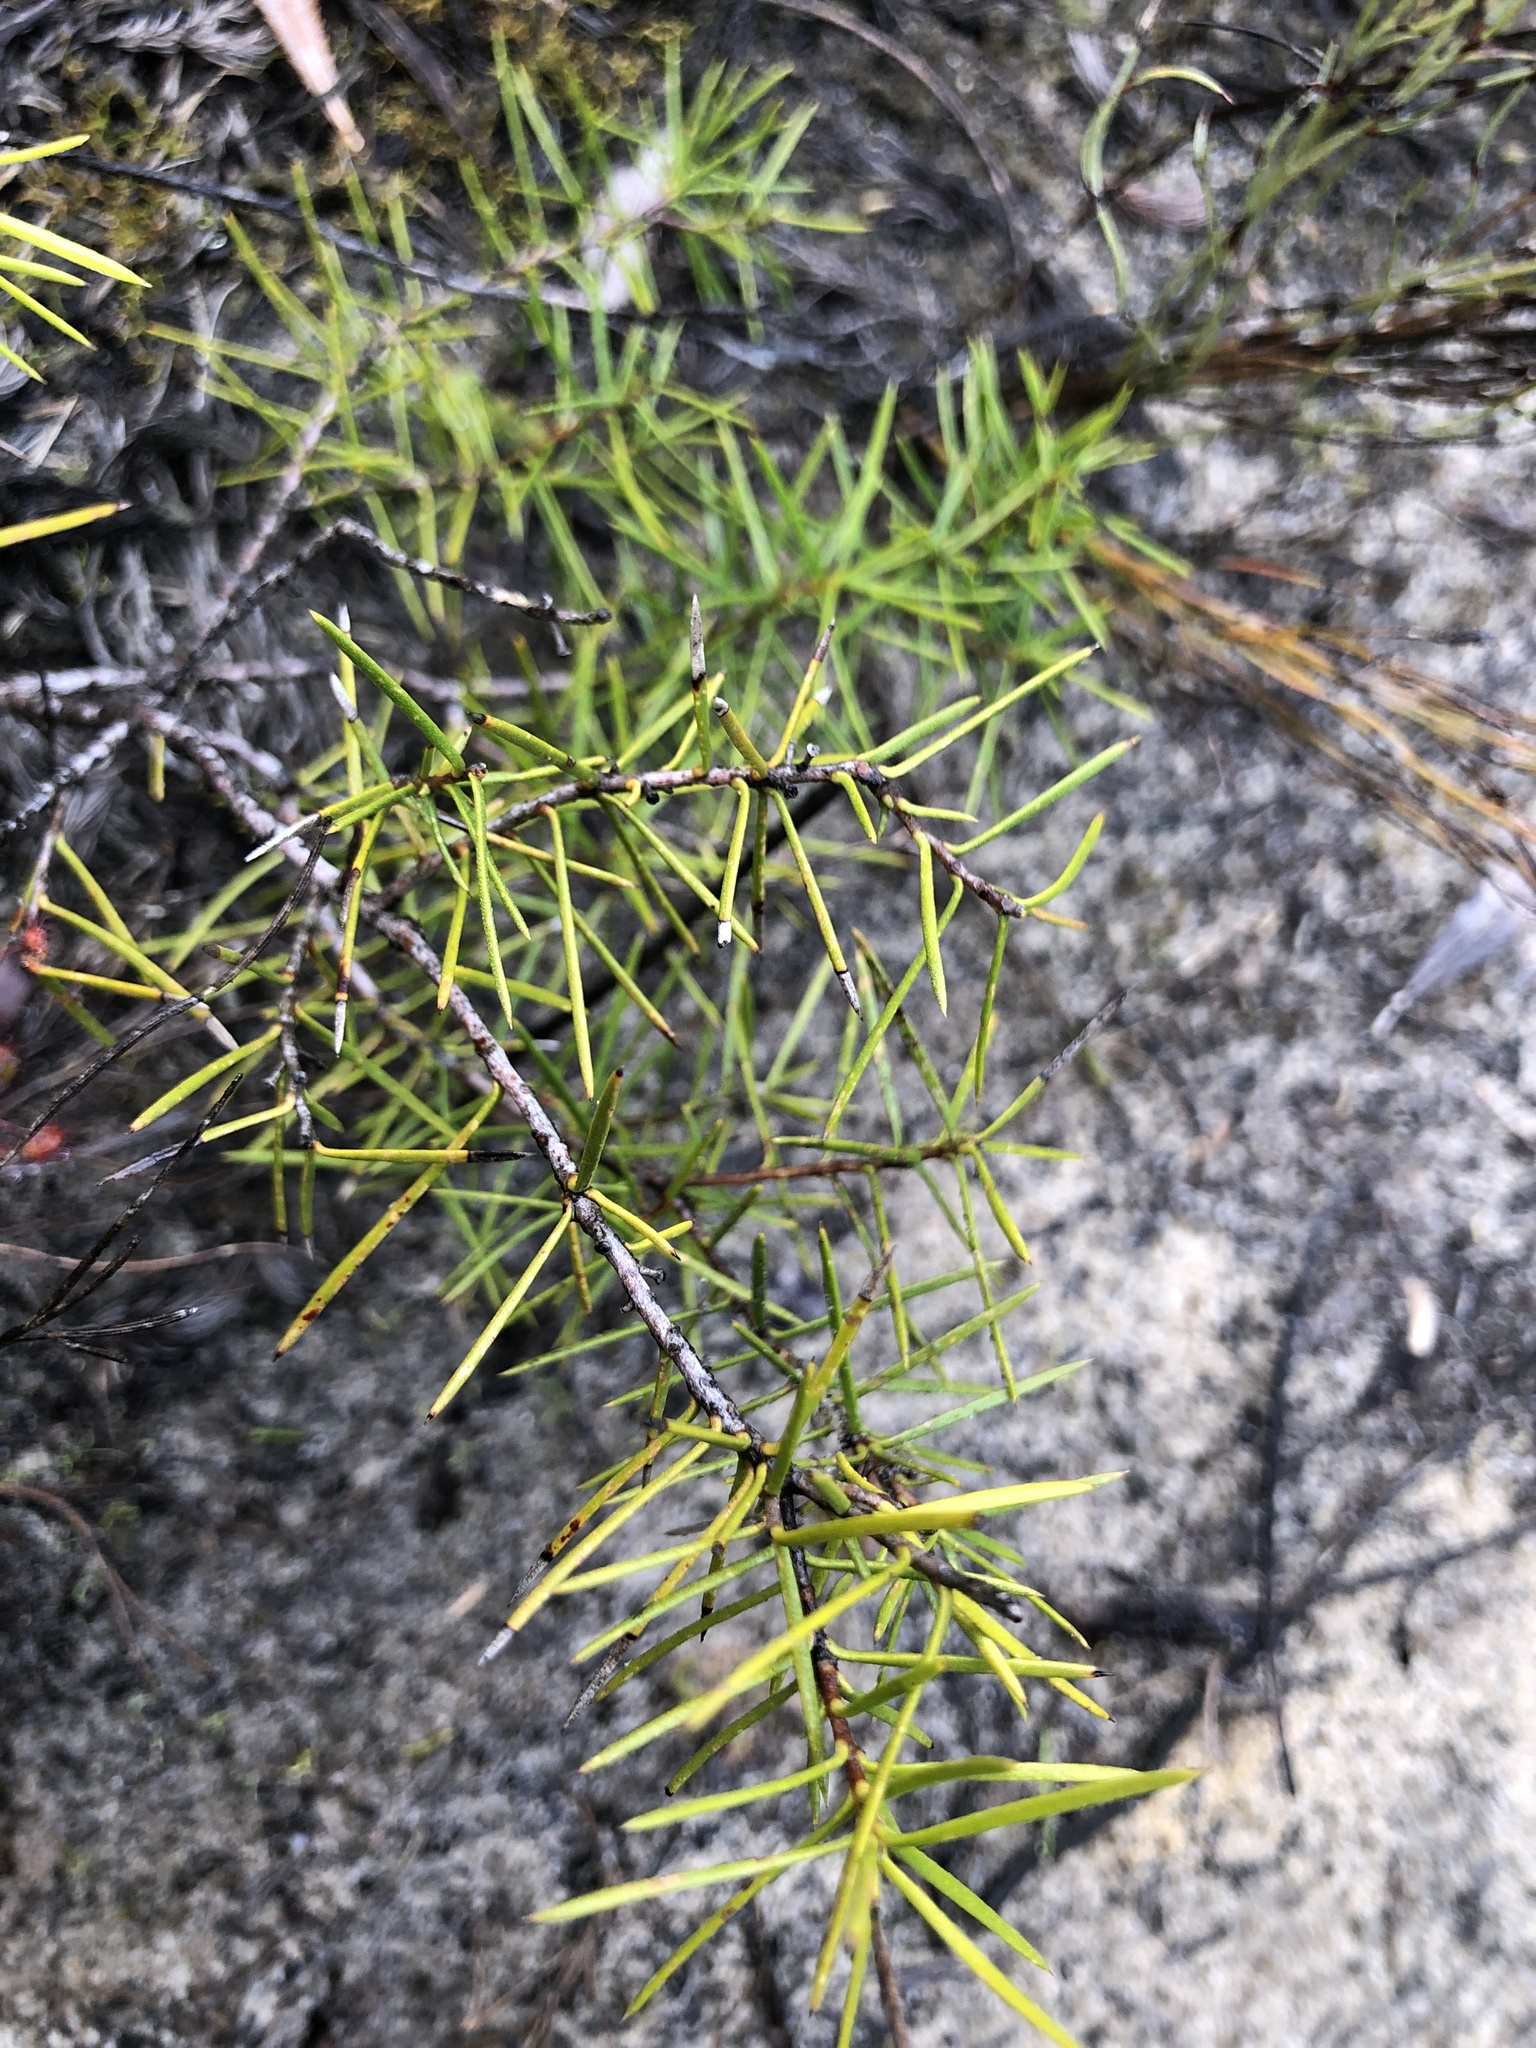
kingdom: Plantae
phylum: Tracheophyta
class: Magnoliopsida
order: Proteales
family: Proteaceae
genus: Persoonia
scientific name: Persoonia juniperina
